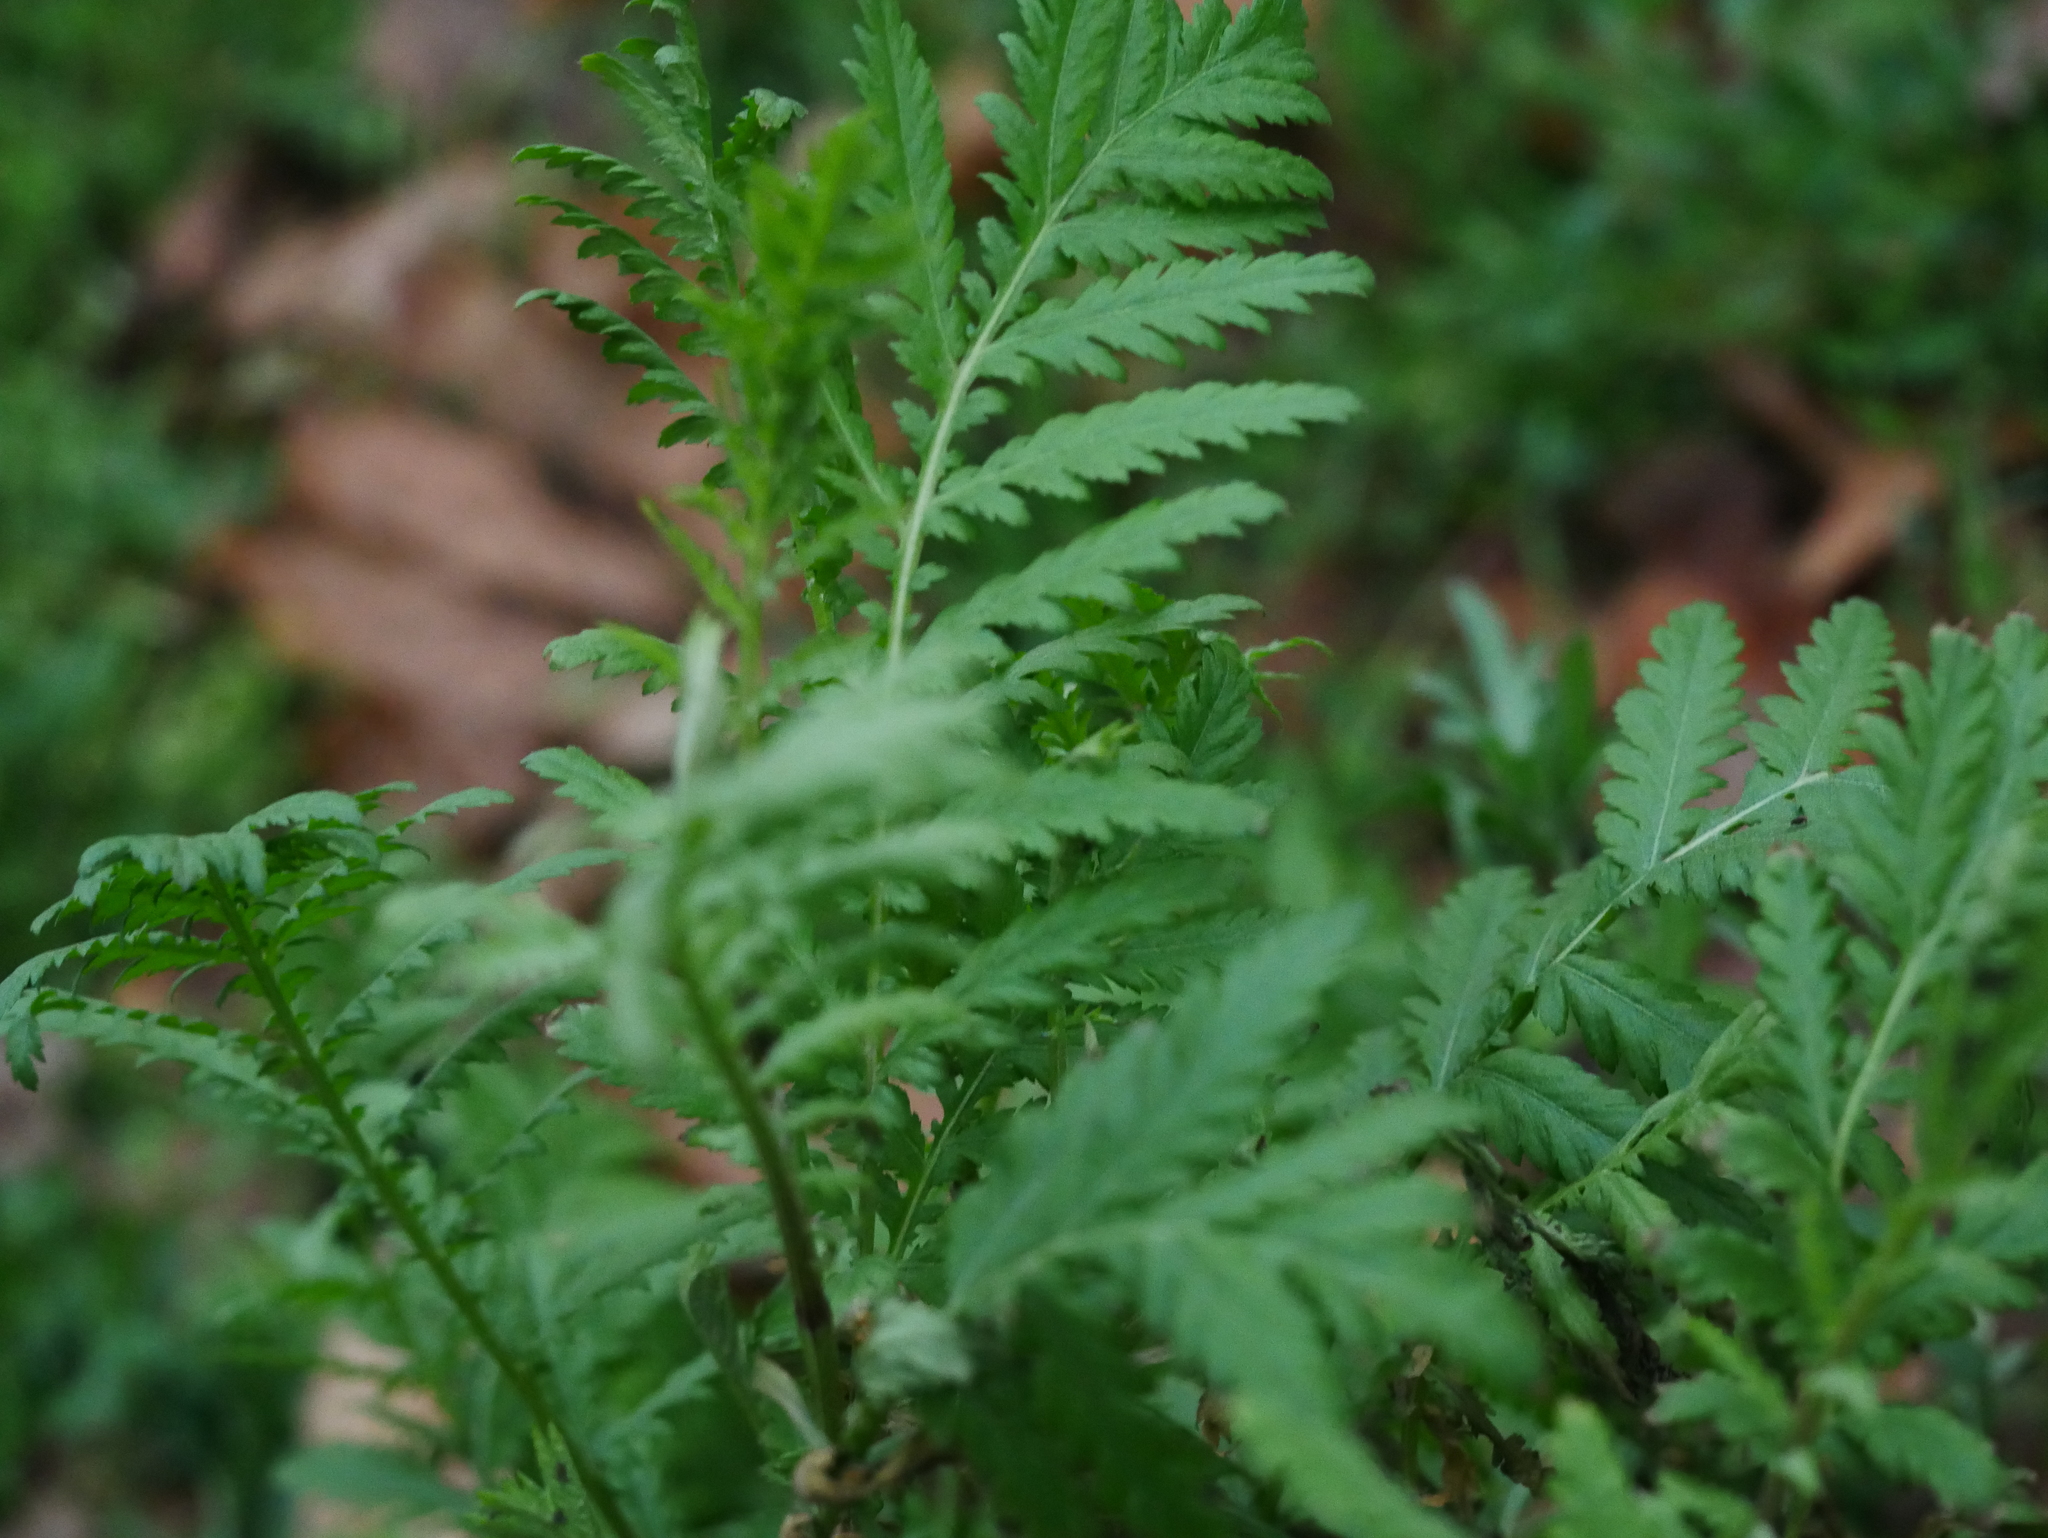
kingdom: Plantae
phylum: Tracheophyta
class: Magnoliopsida
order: Asterales
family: Asteraceae
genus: Tanacetum
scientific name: Tanacetum vulgare
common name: Common tansy
